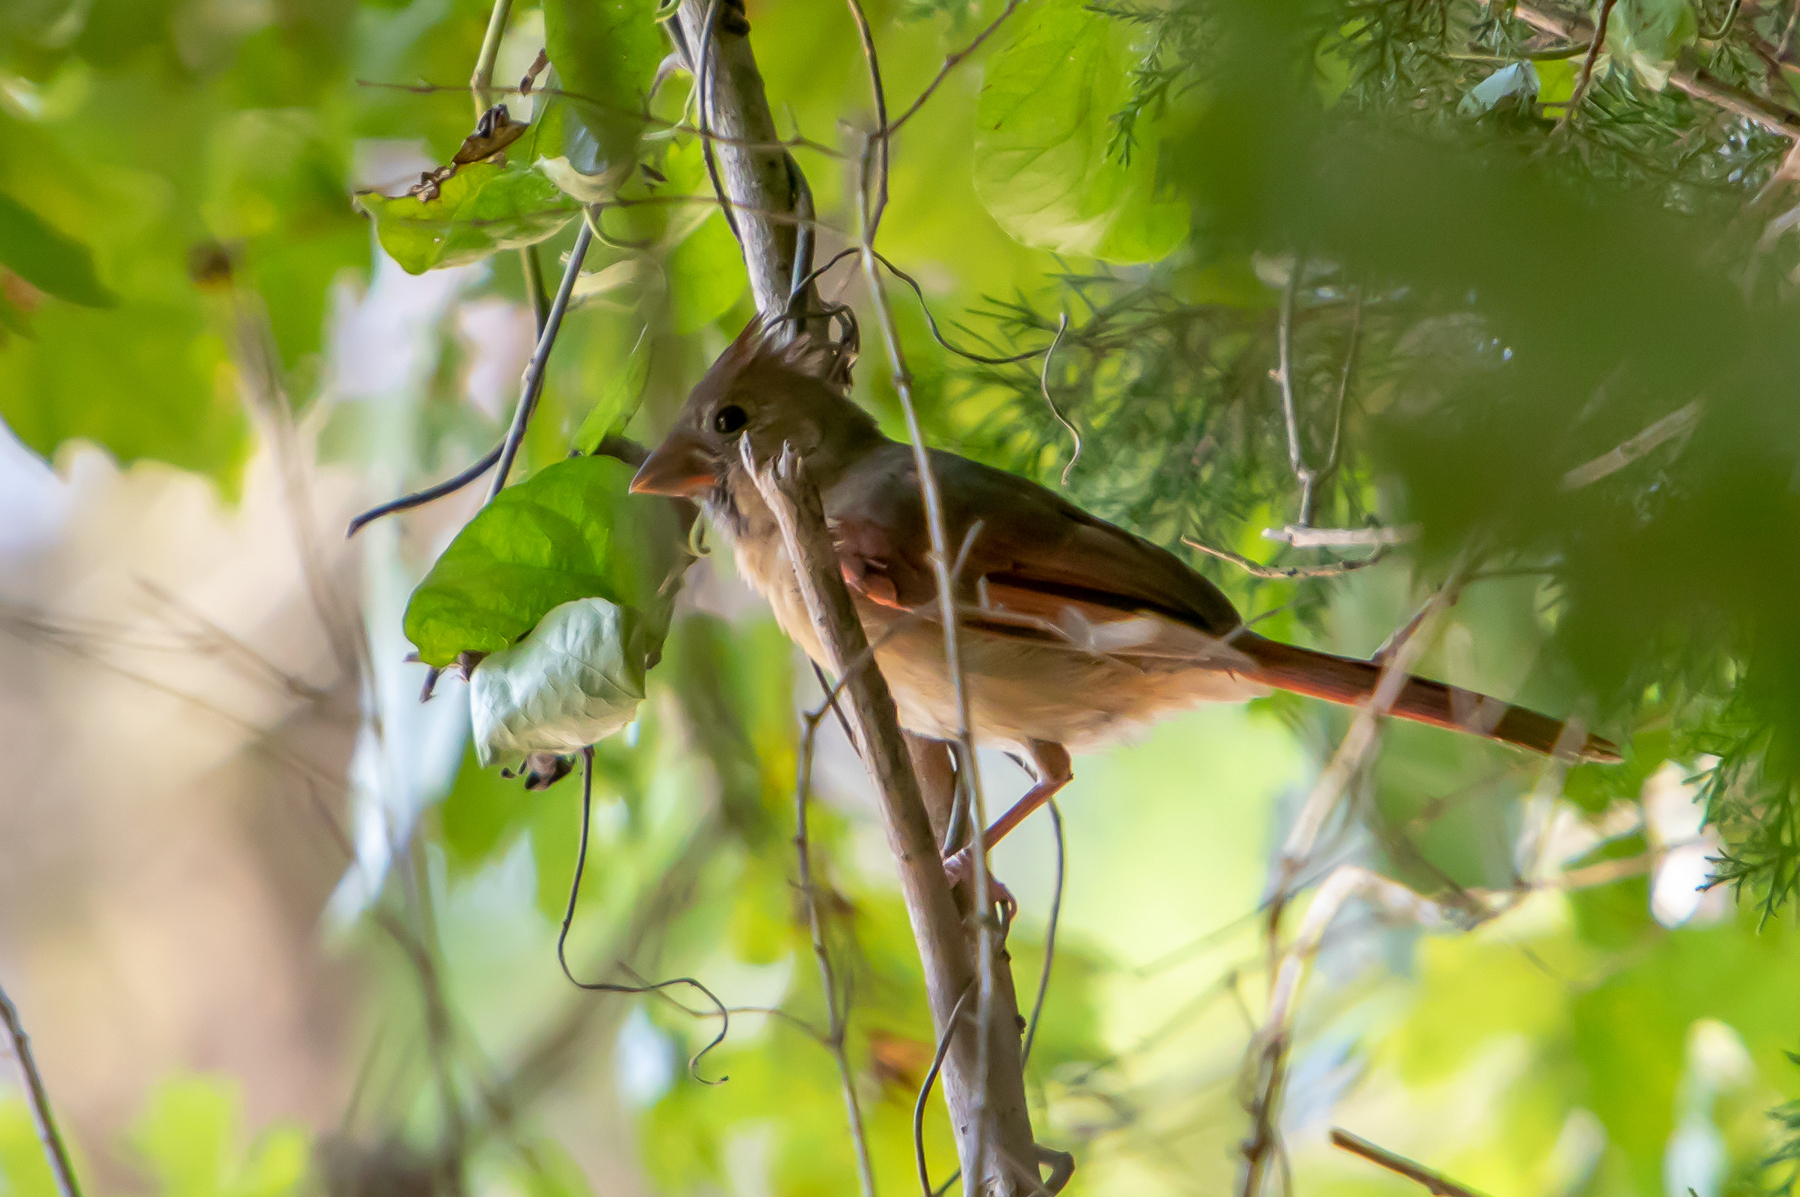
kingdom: Animalia
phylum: Chordata
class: Aves
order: Passeriformes
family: Cardinalidae
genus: Cardinalis
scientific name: Cardinalis cardinalis
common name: Northern cardinal
